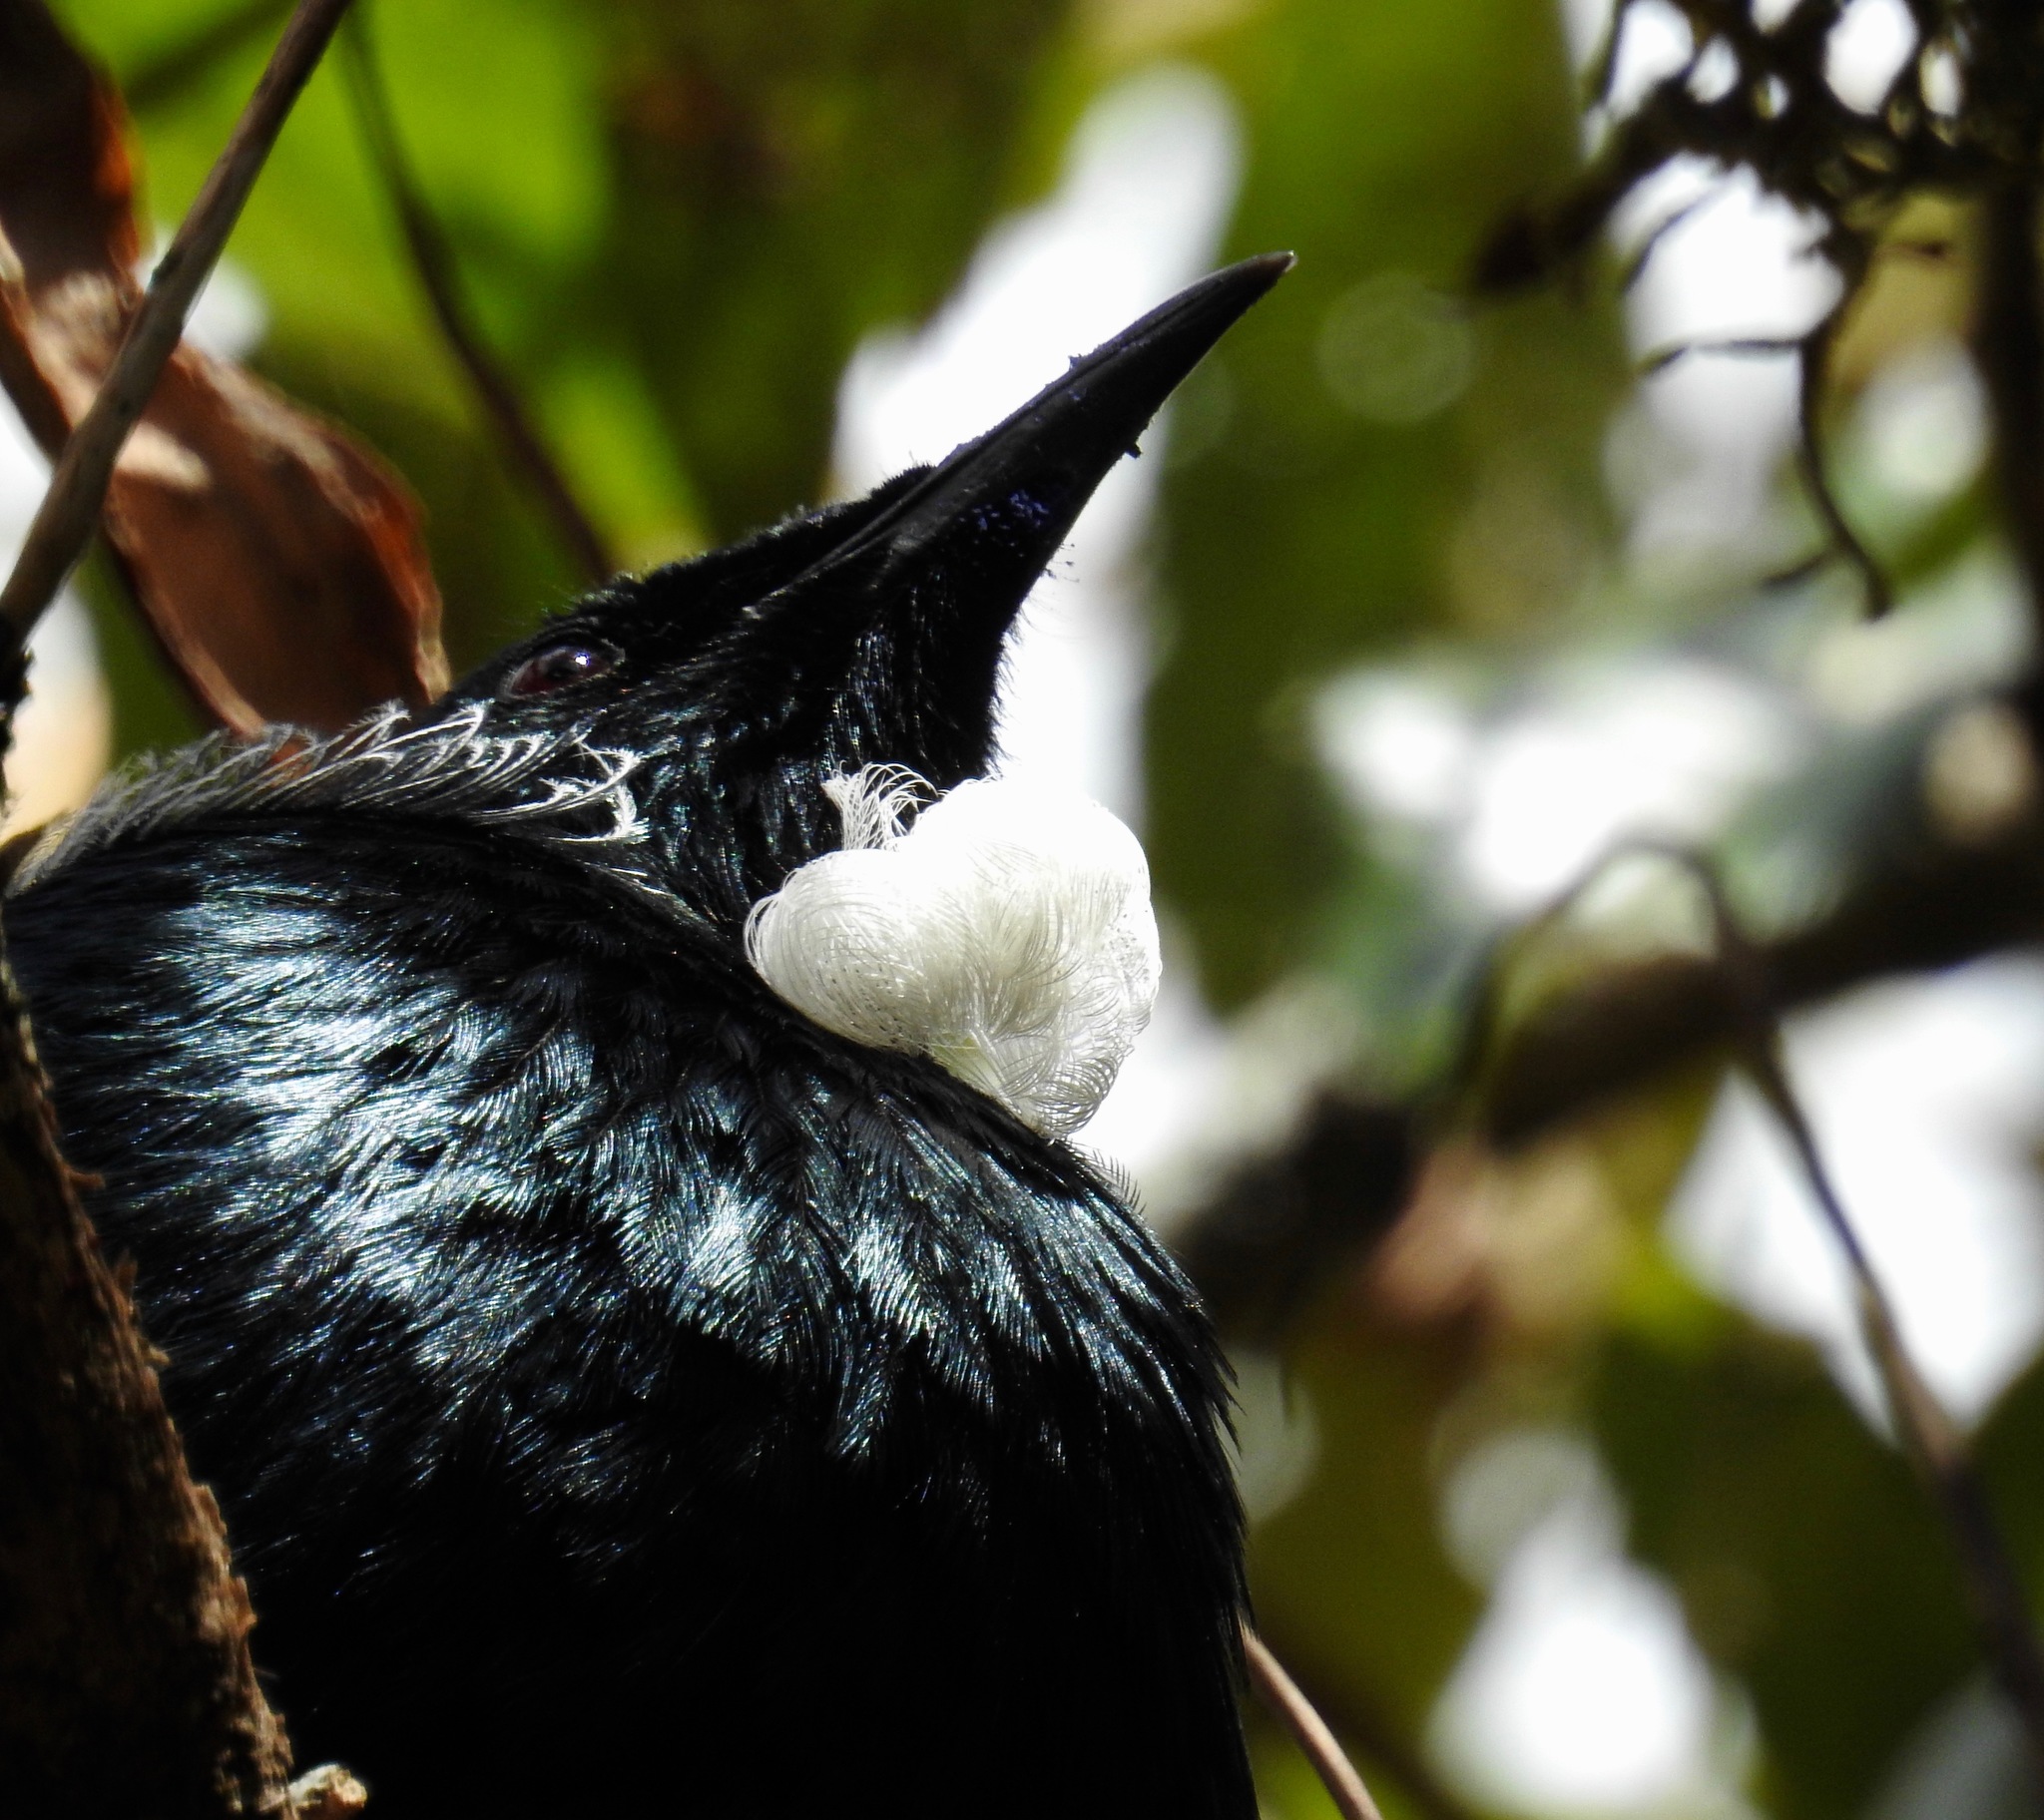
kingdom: Animalia
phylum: Chordata
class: Aves
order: Passeriformes
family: Meliphagidae
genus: Prosthemadera
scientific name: Prosthemadera novaeseelandiae
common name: Tui
